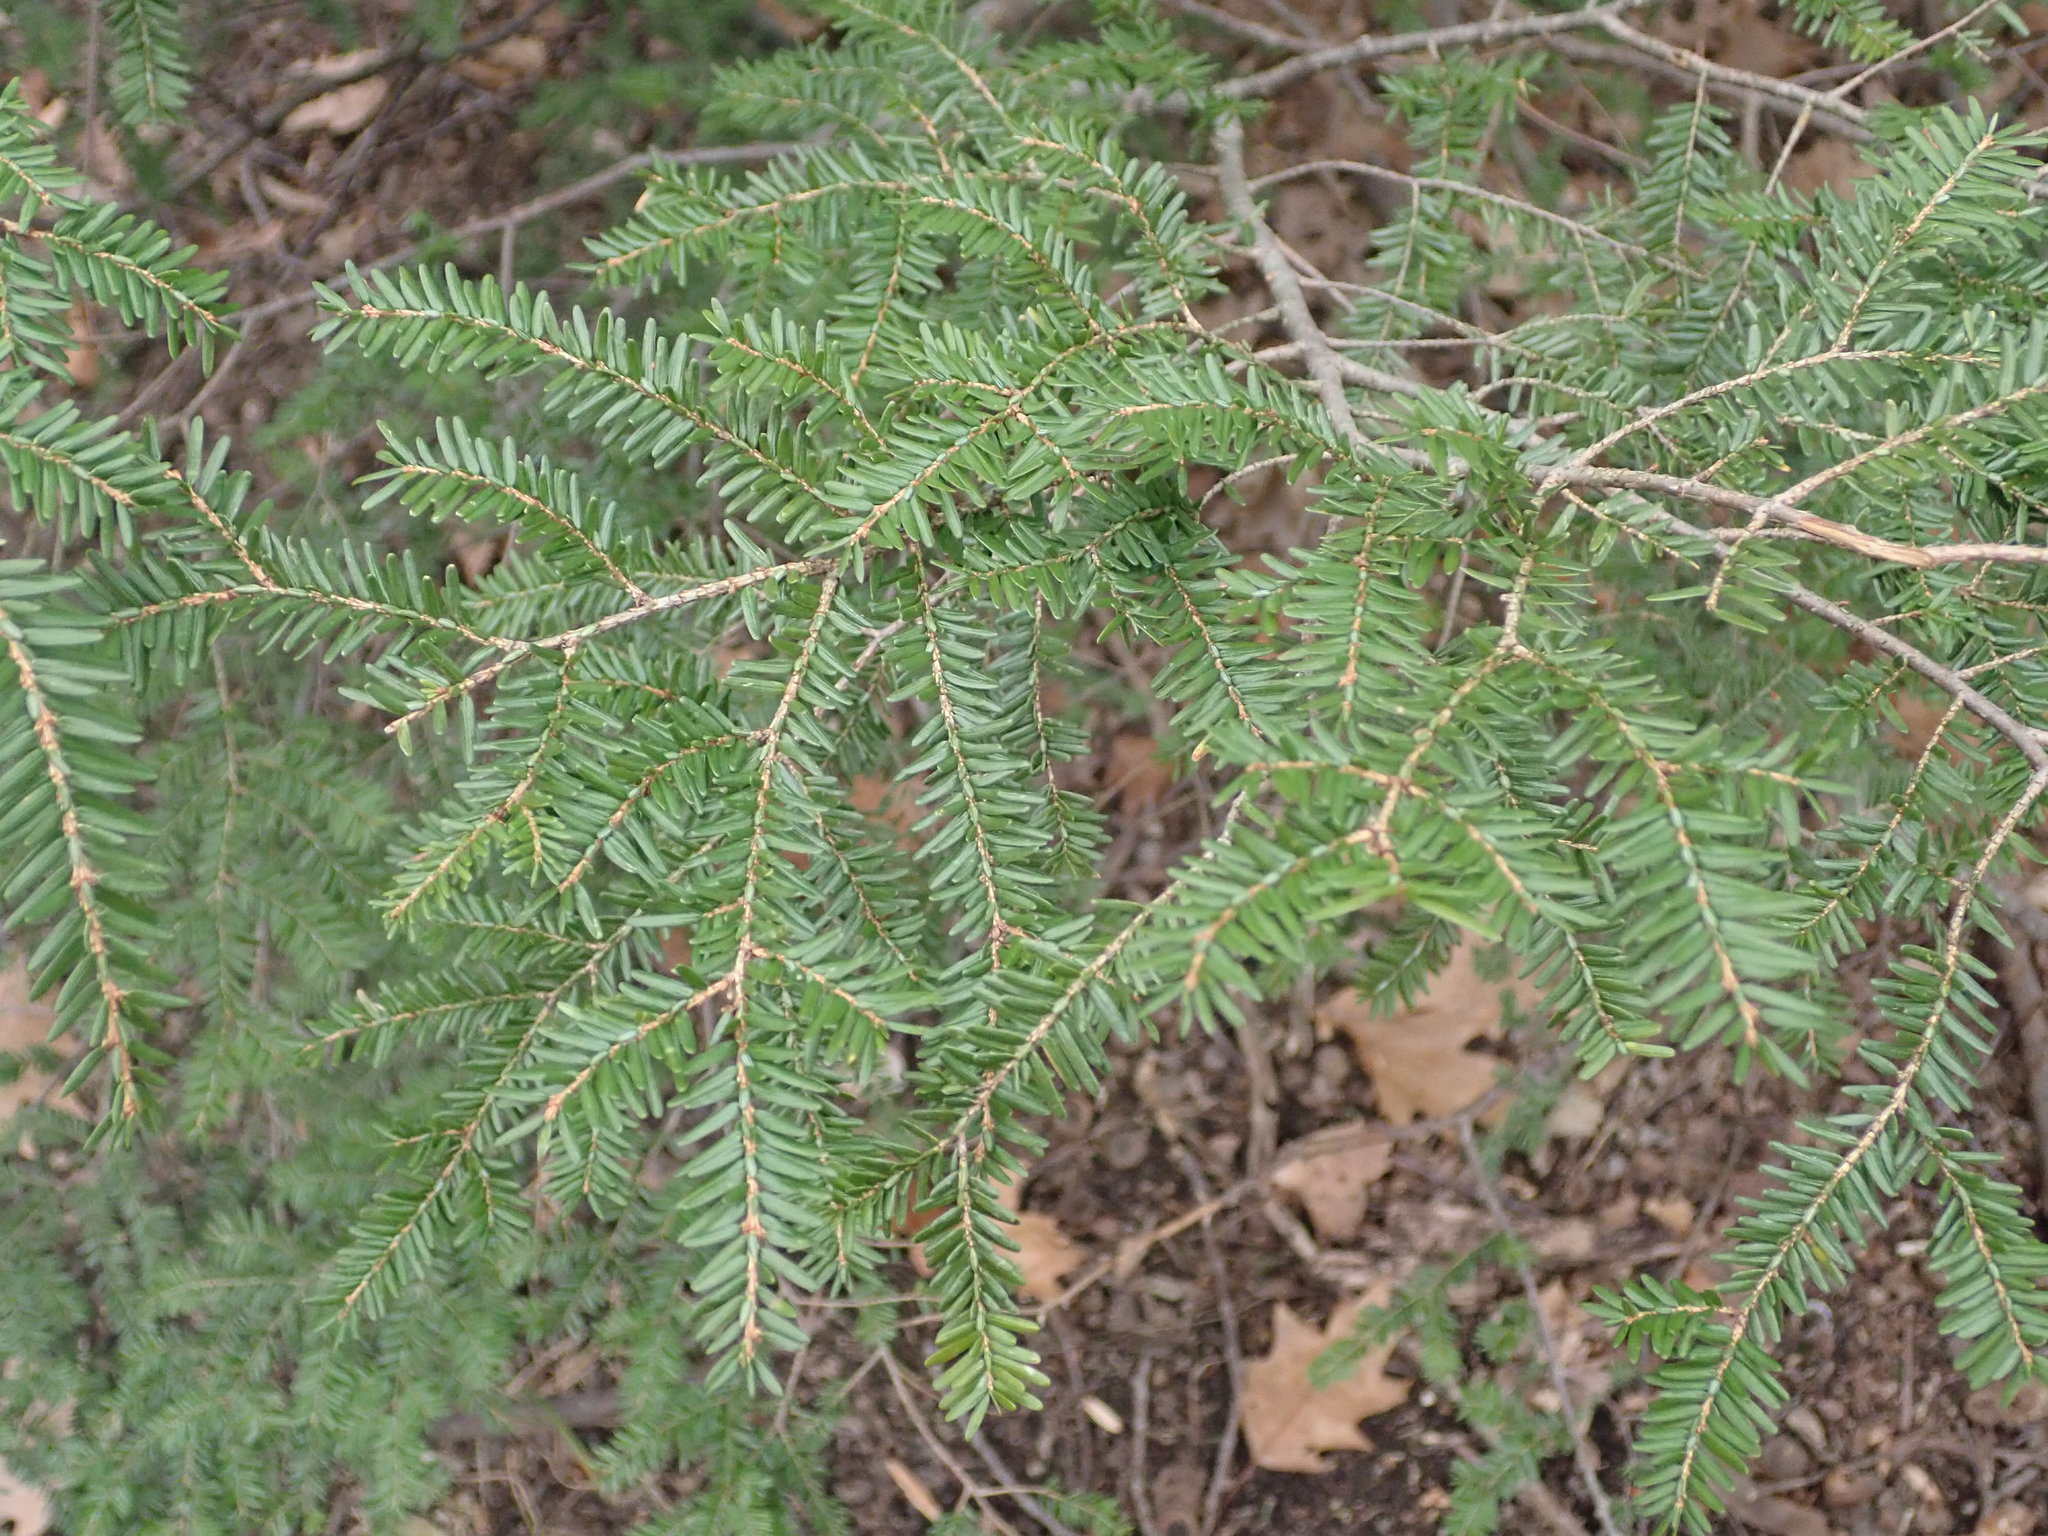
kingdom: Plantae
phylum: Tracheophyta
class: Pinopsida
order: Pinales
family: Pinaceae
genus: Tsuga
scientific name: Tsuga canadensis
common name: Eastern hemlock
